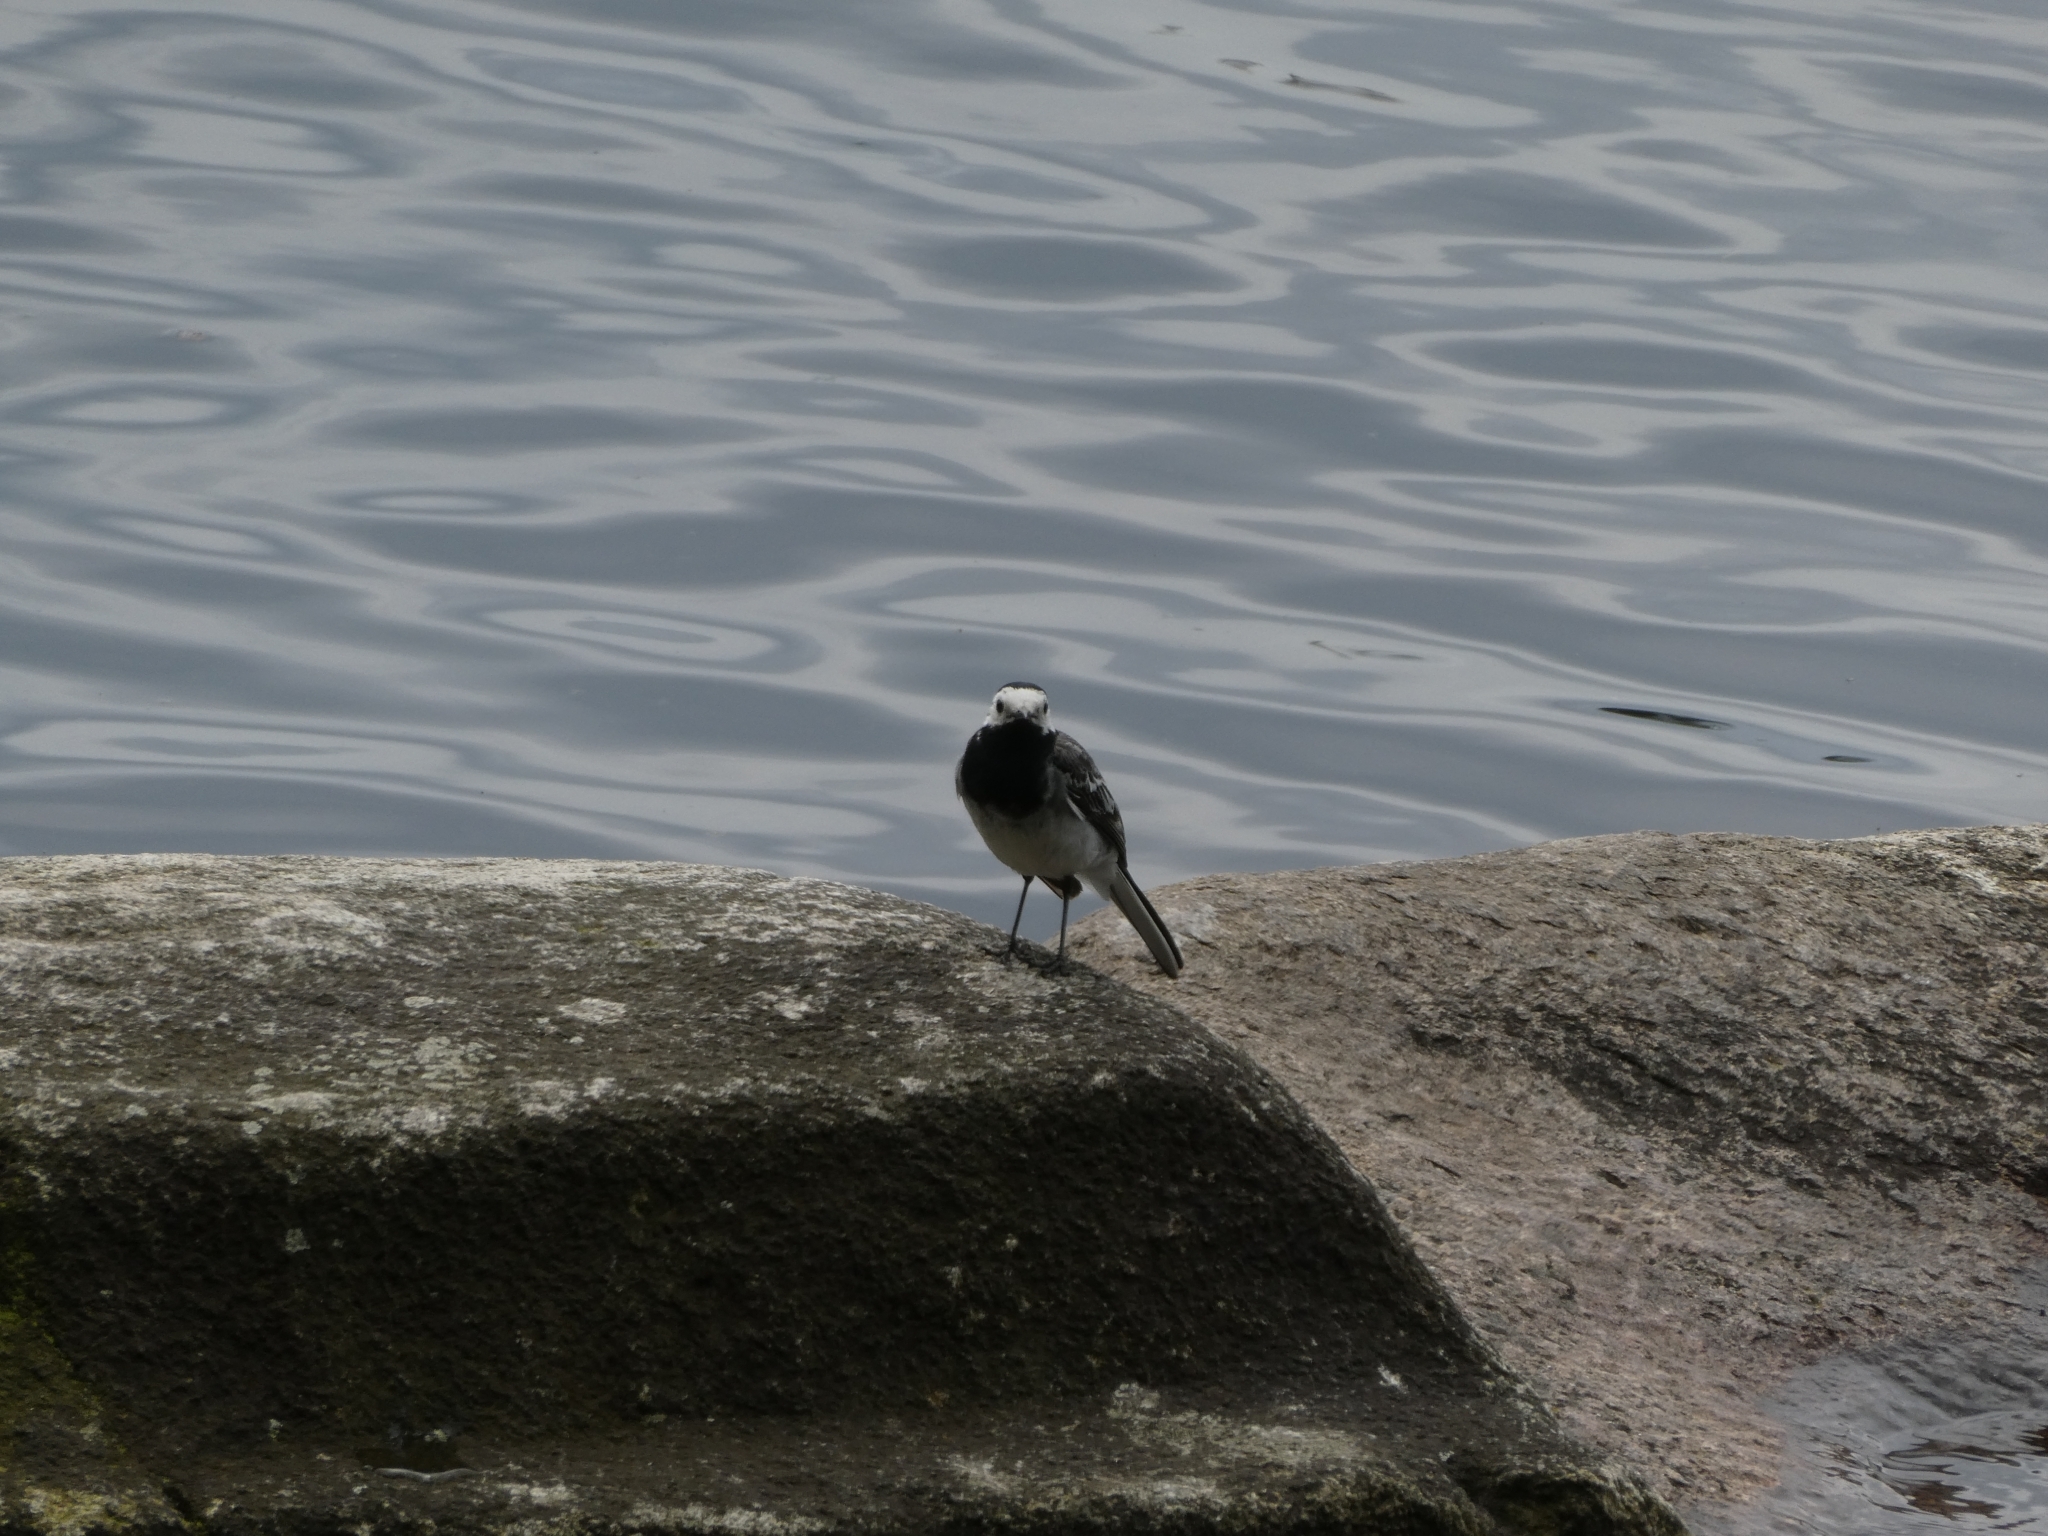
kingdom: Animalia
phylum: Chordata
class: Aves
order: Passeriformes
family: Motacillidae
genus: Motacilla
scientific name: Motacilla alba
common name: White wagtail
